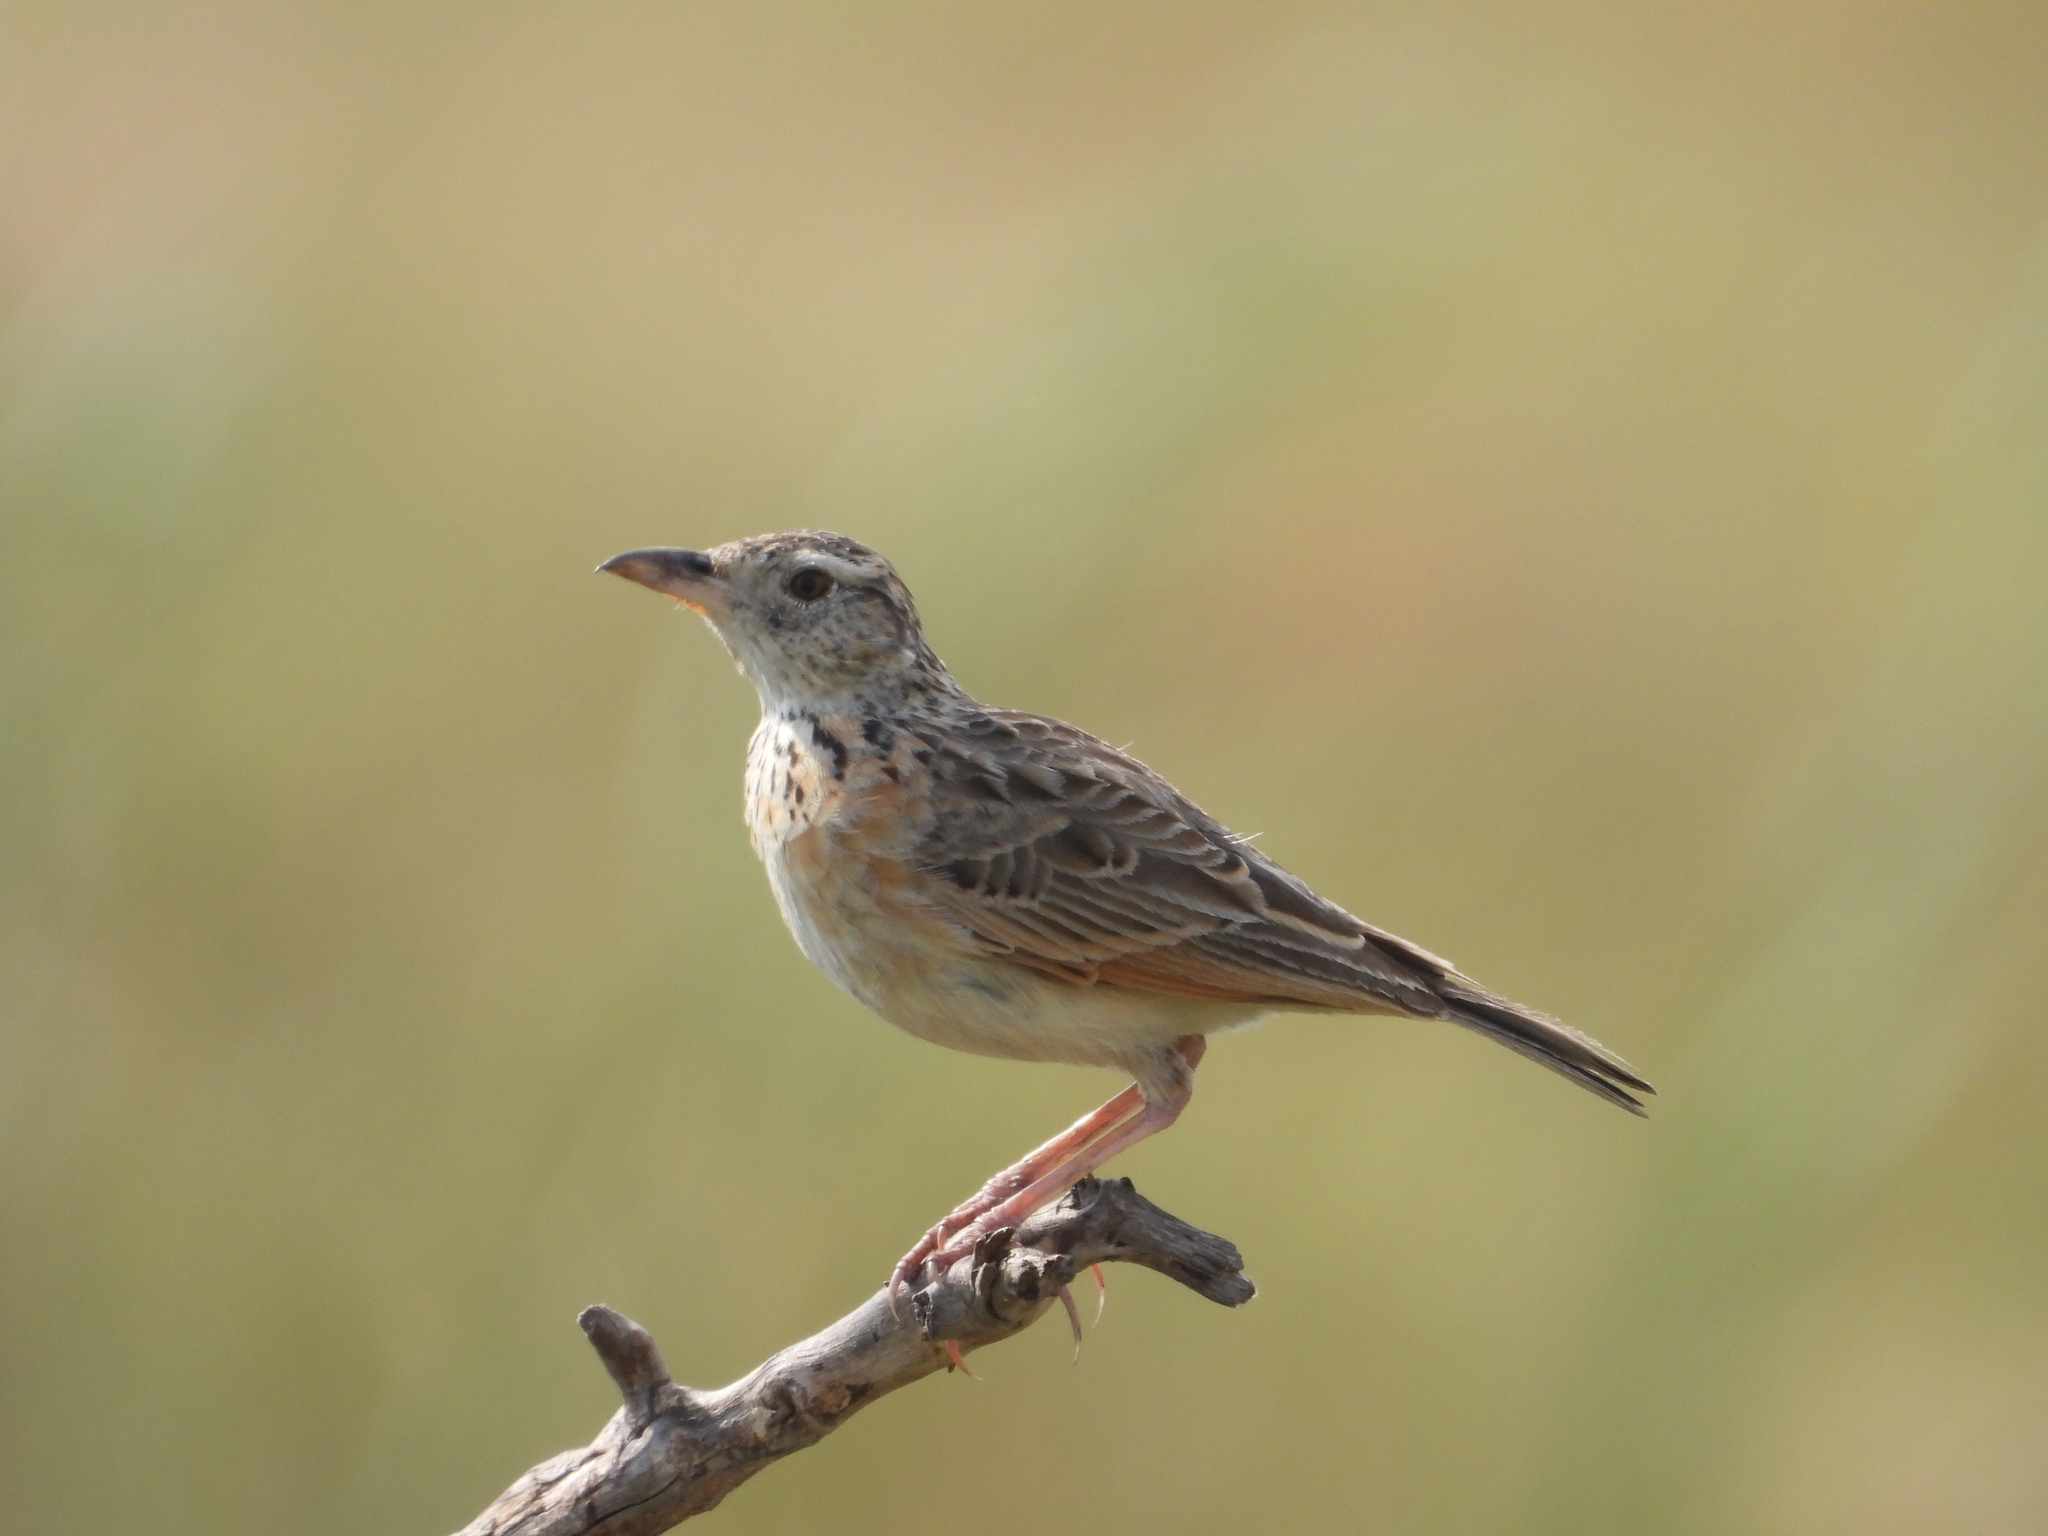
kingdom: Animalia
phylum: Chordata
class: Aves
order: Passeriformes
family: Alaudidae
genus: Mirafra
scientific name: Mirafra africana
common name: Rufous-naped lark
